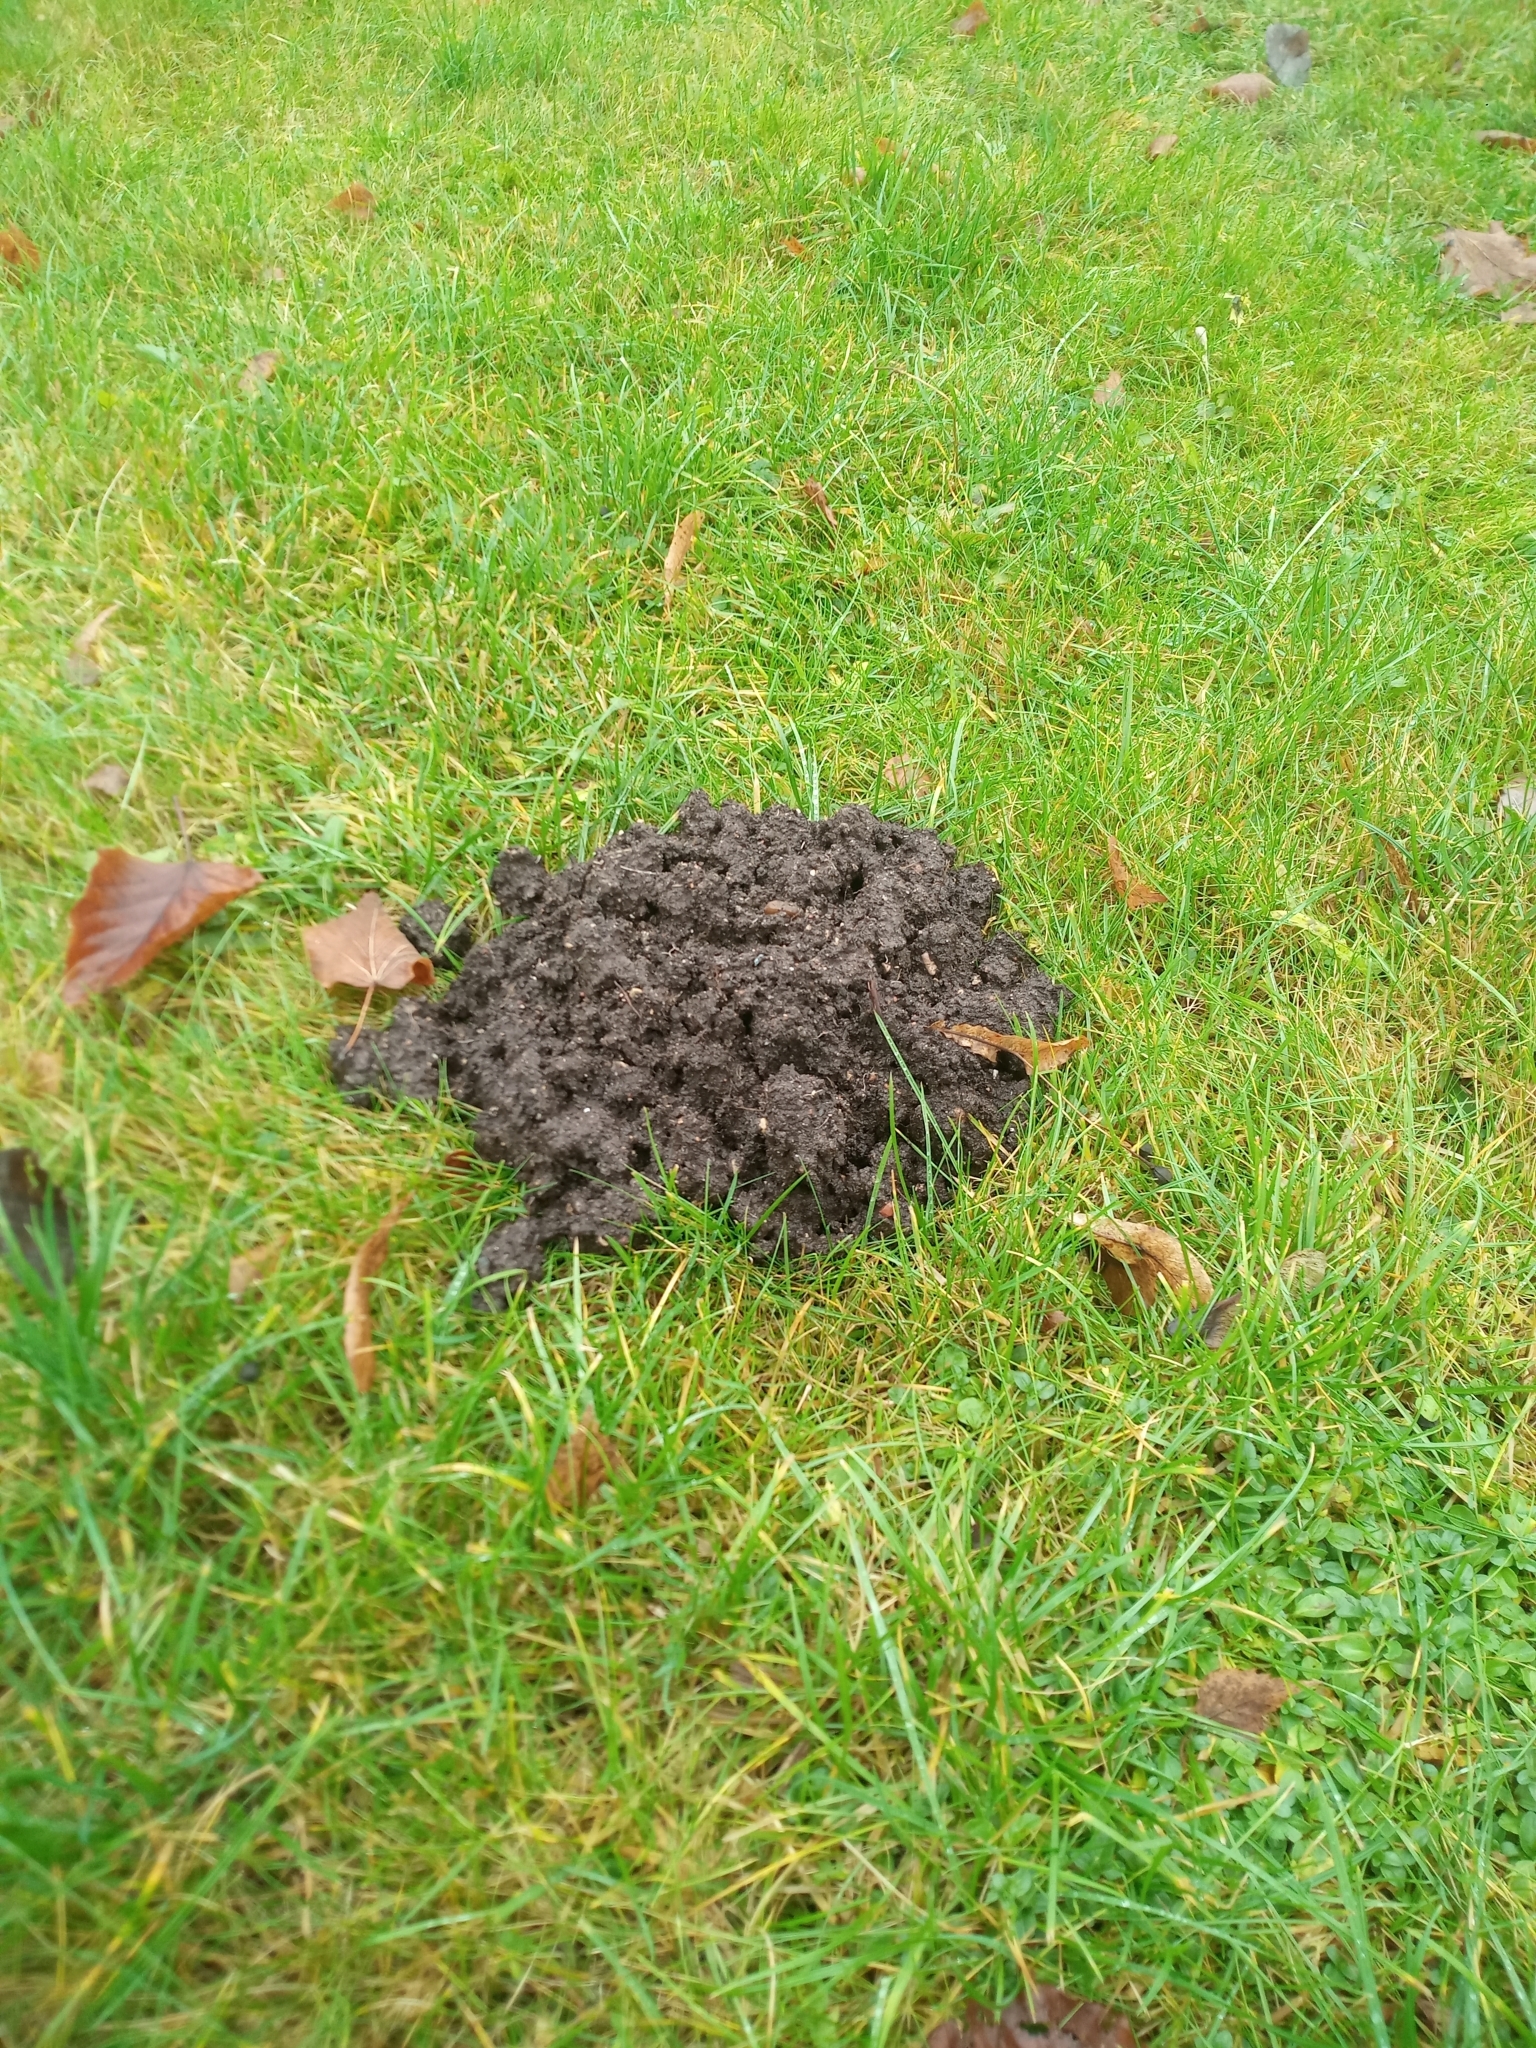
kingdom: Animalia
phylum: Chordata
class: Mammalia
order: Soricomorpha
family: Talpidae
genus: Talpa
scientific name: Talpa europaea
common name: European mole
